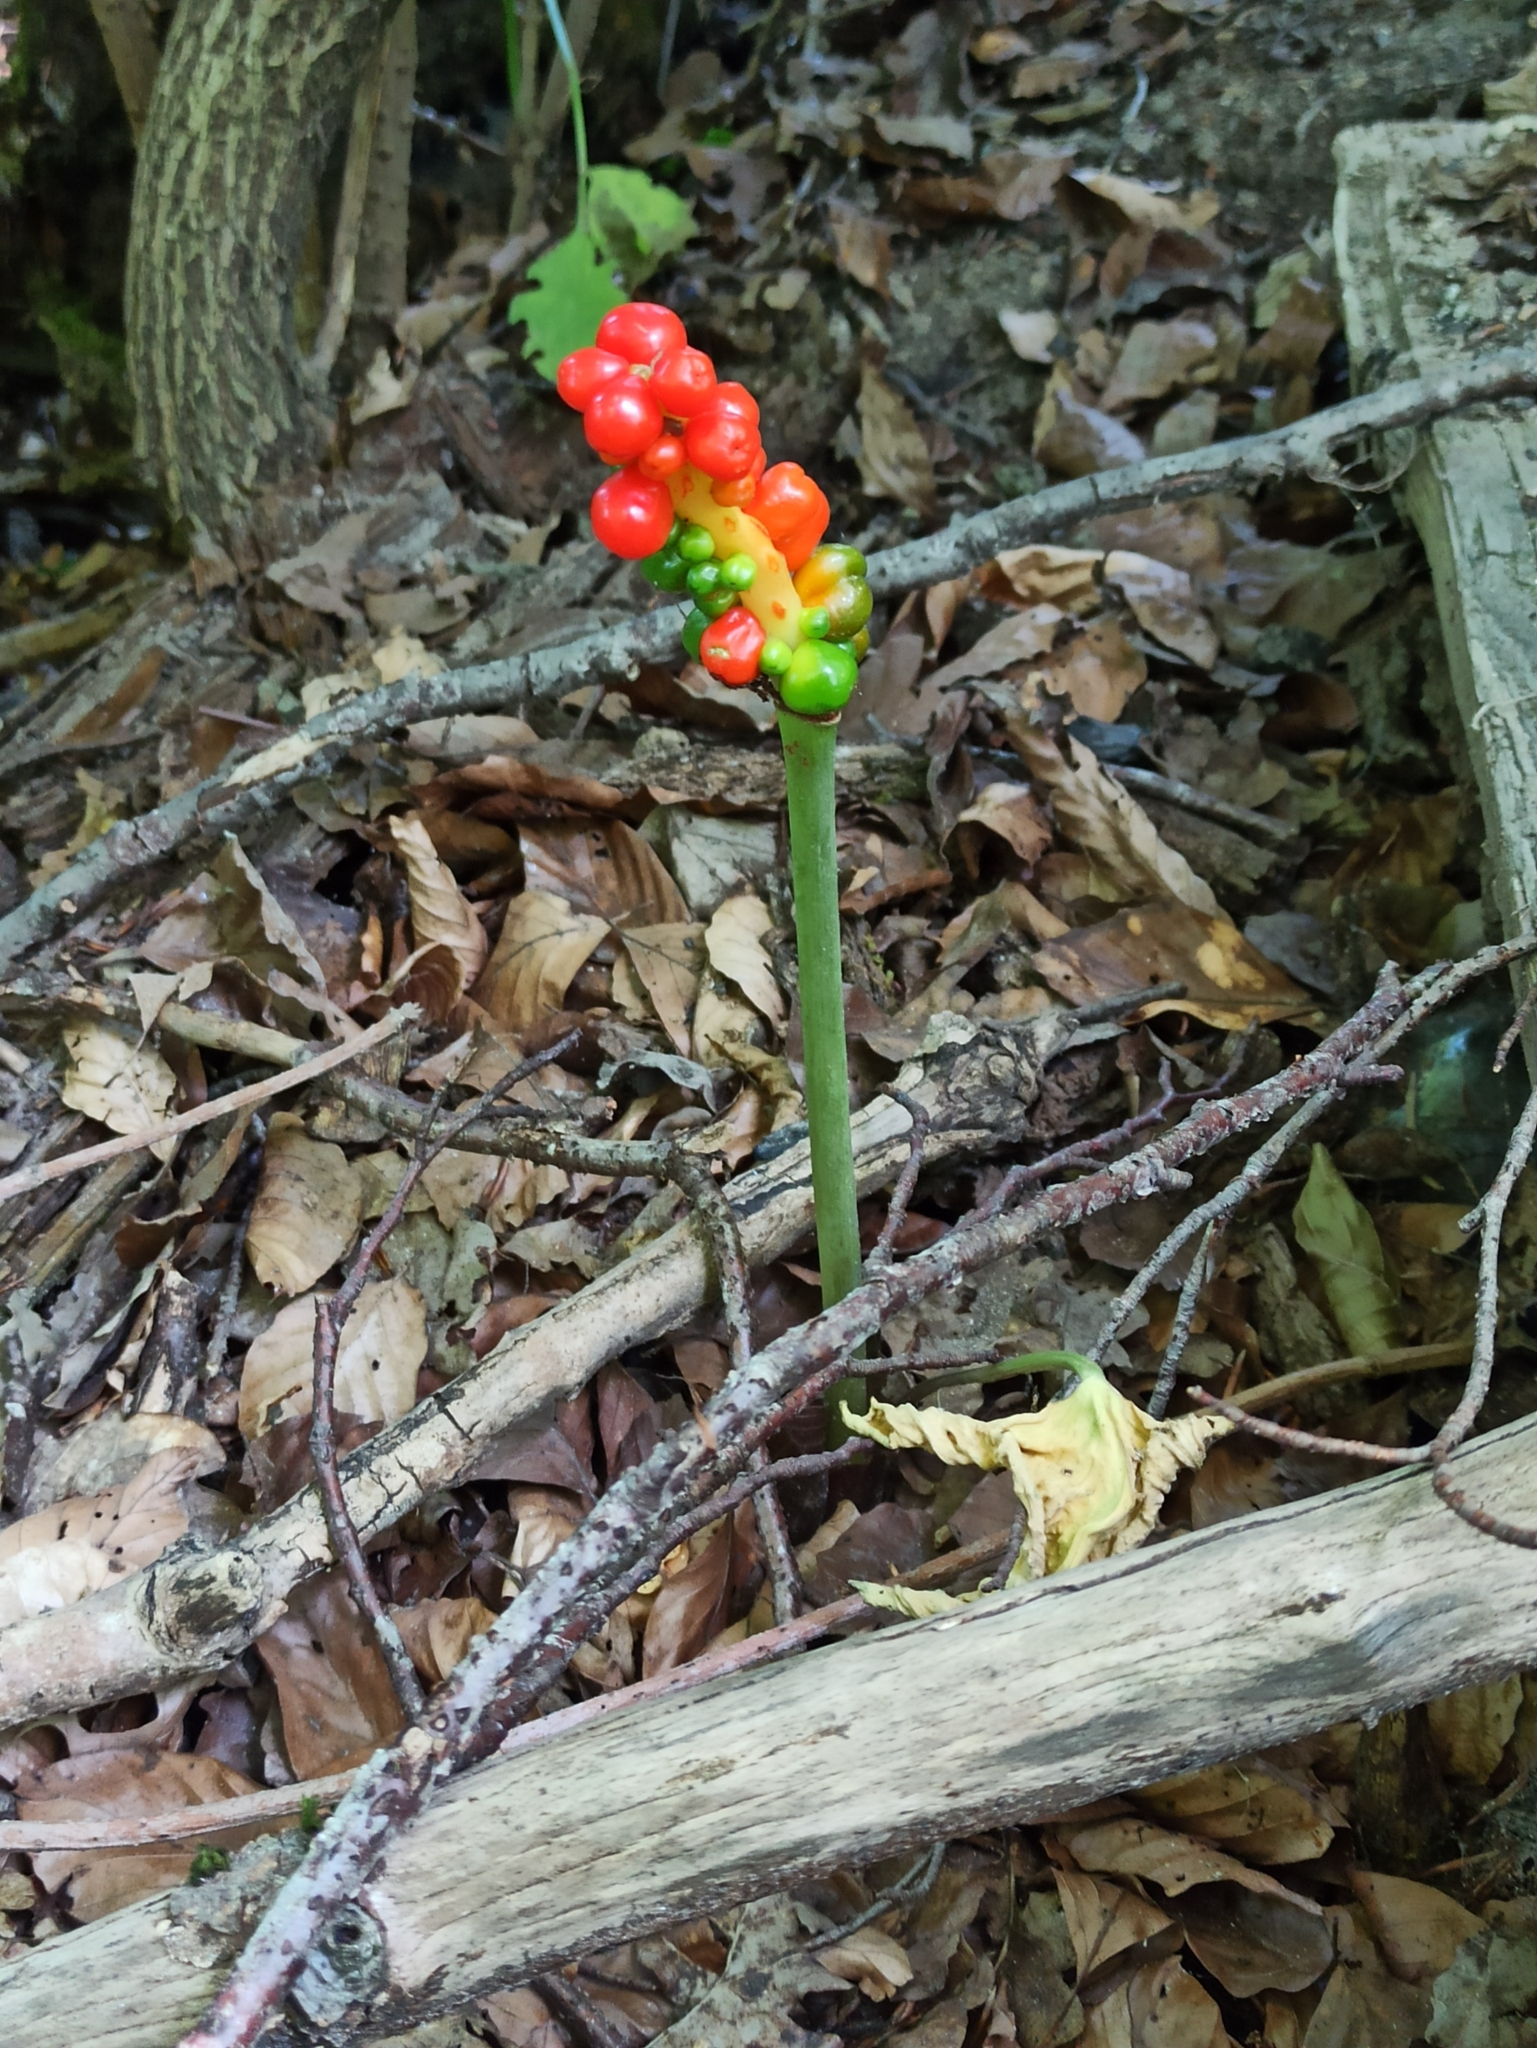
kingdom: Plantae
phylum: Tracheophyta
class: Liliopsida
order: Alismatales
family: Araceae
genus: Arum
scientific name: Arum maculatum
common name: Lords-and-ladies
